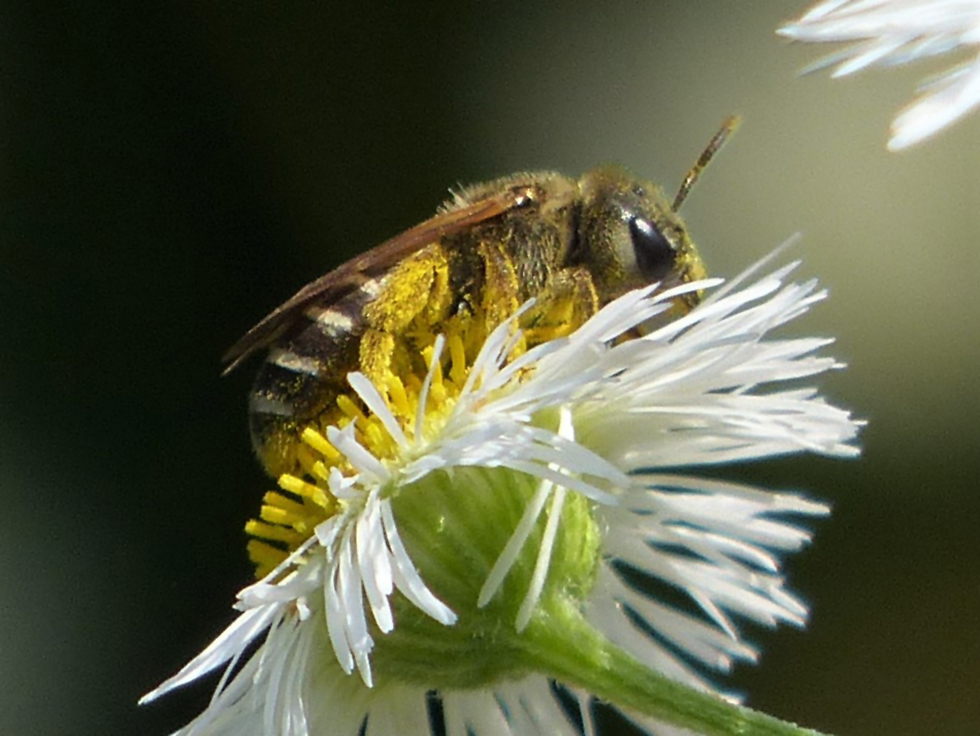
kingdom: Animalia
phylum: Arthropoda
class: Insecta
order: Hymenoptera
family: Halictidae
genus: Halictus
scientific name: Halictus ligatus
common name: Ligated furrow bee
